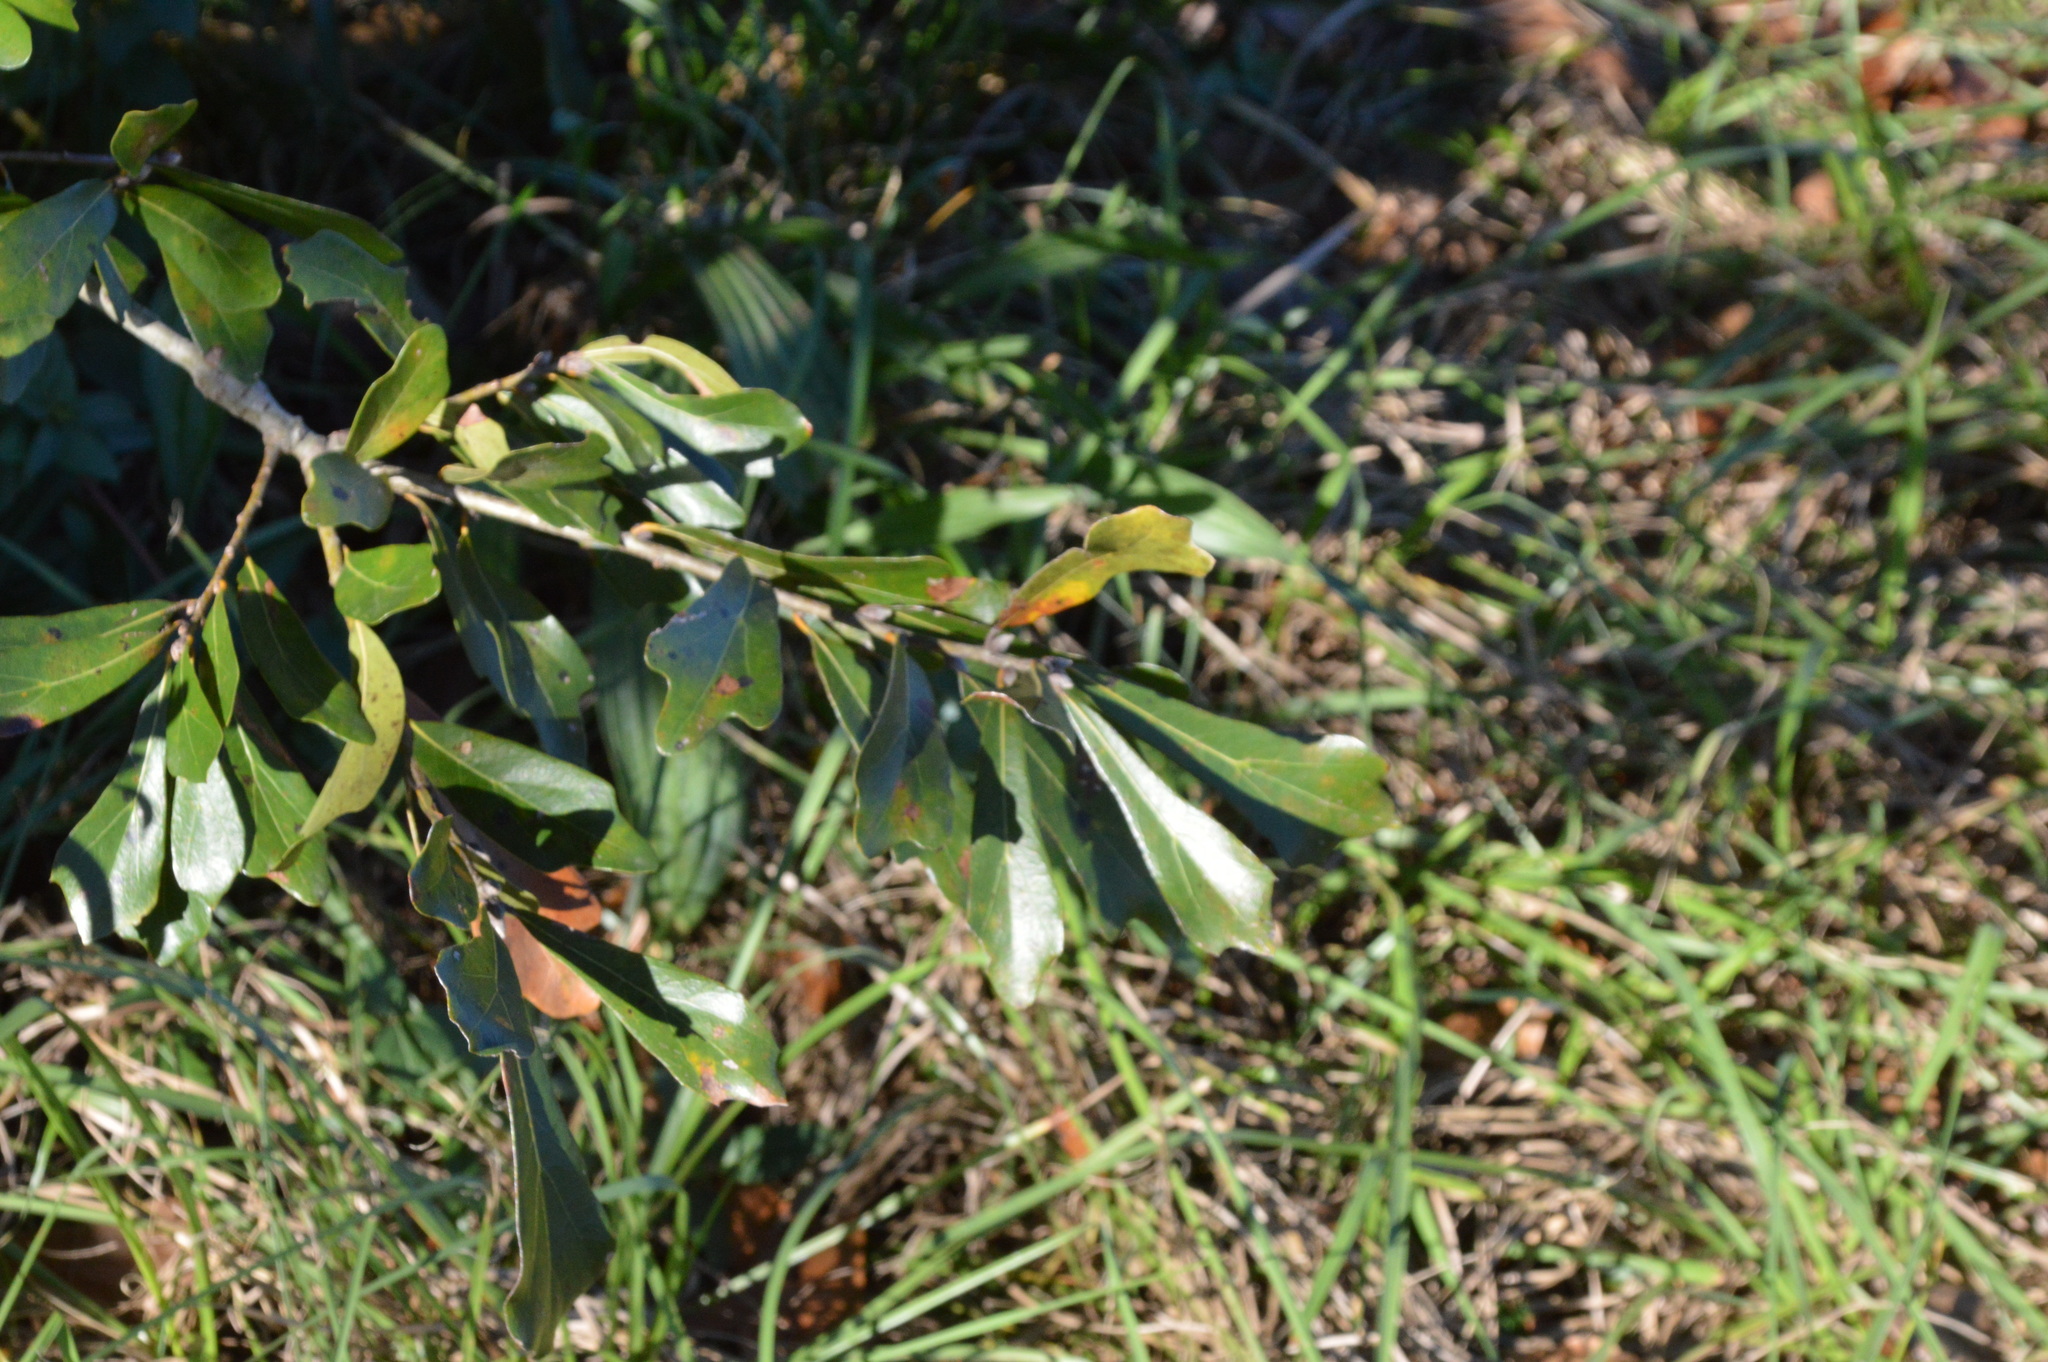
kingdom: Plantae
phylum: Tracheophyta
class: Magnoliopsida
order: Fagales
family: Fagaceae
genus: Quercus
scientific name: Quercus nigra
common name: Water oak
